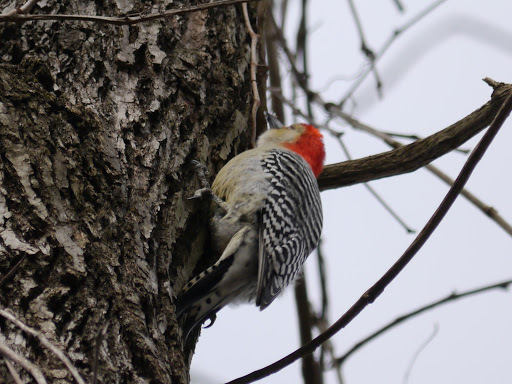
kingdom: Animalia
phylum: Chordata
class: Aves
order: Piciformes
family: Picidae
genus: Melanerpes
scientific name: Melanerpes carolinus
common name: Red-bellied woodpecker
